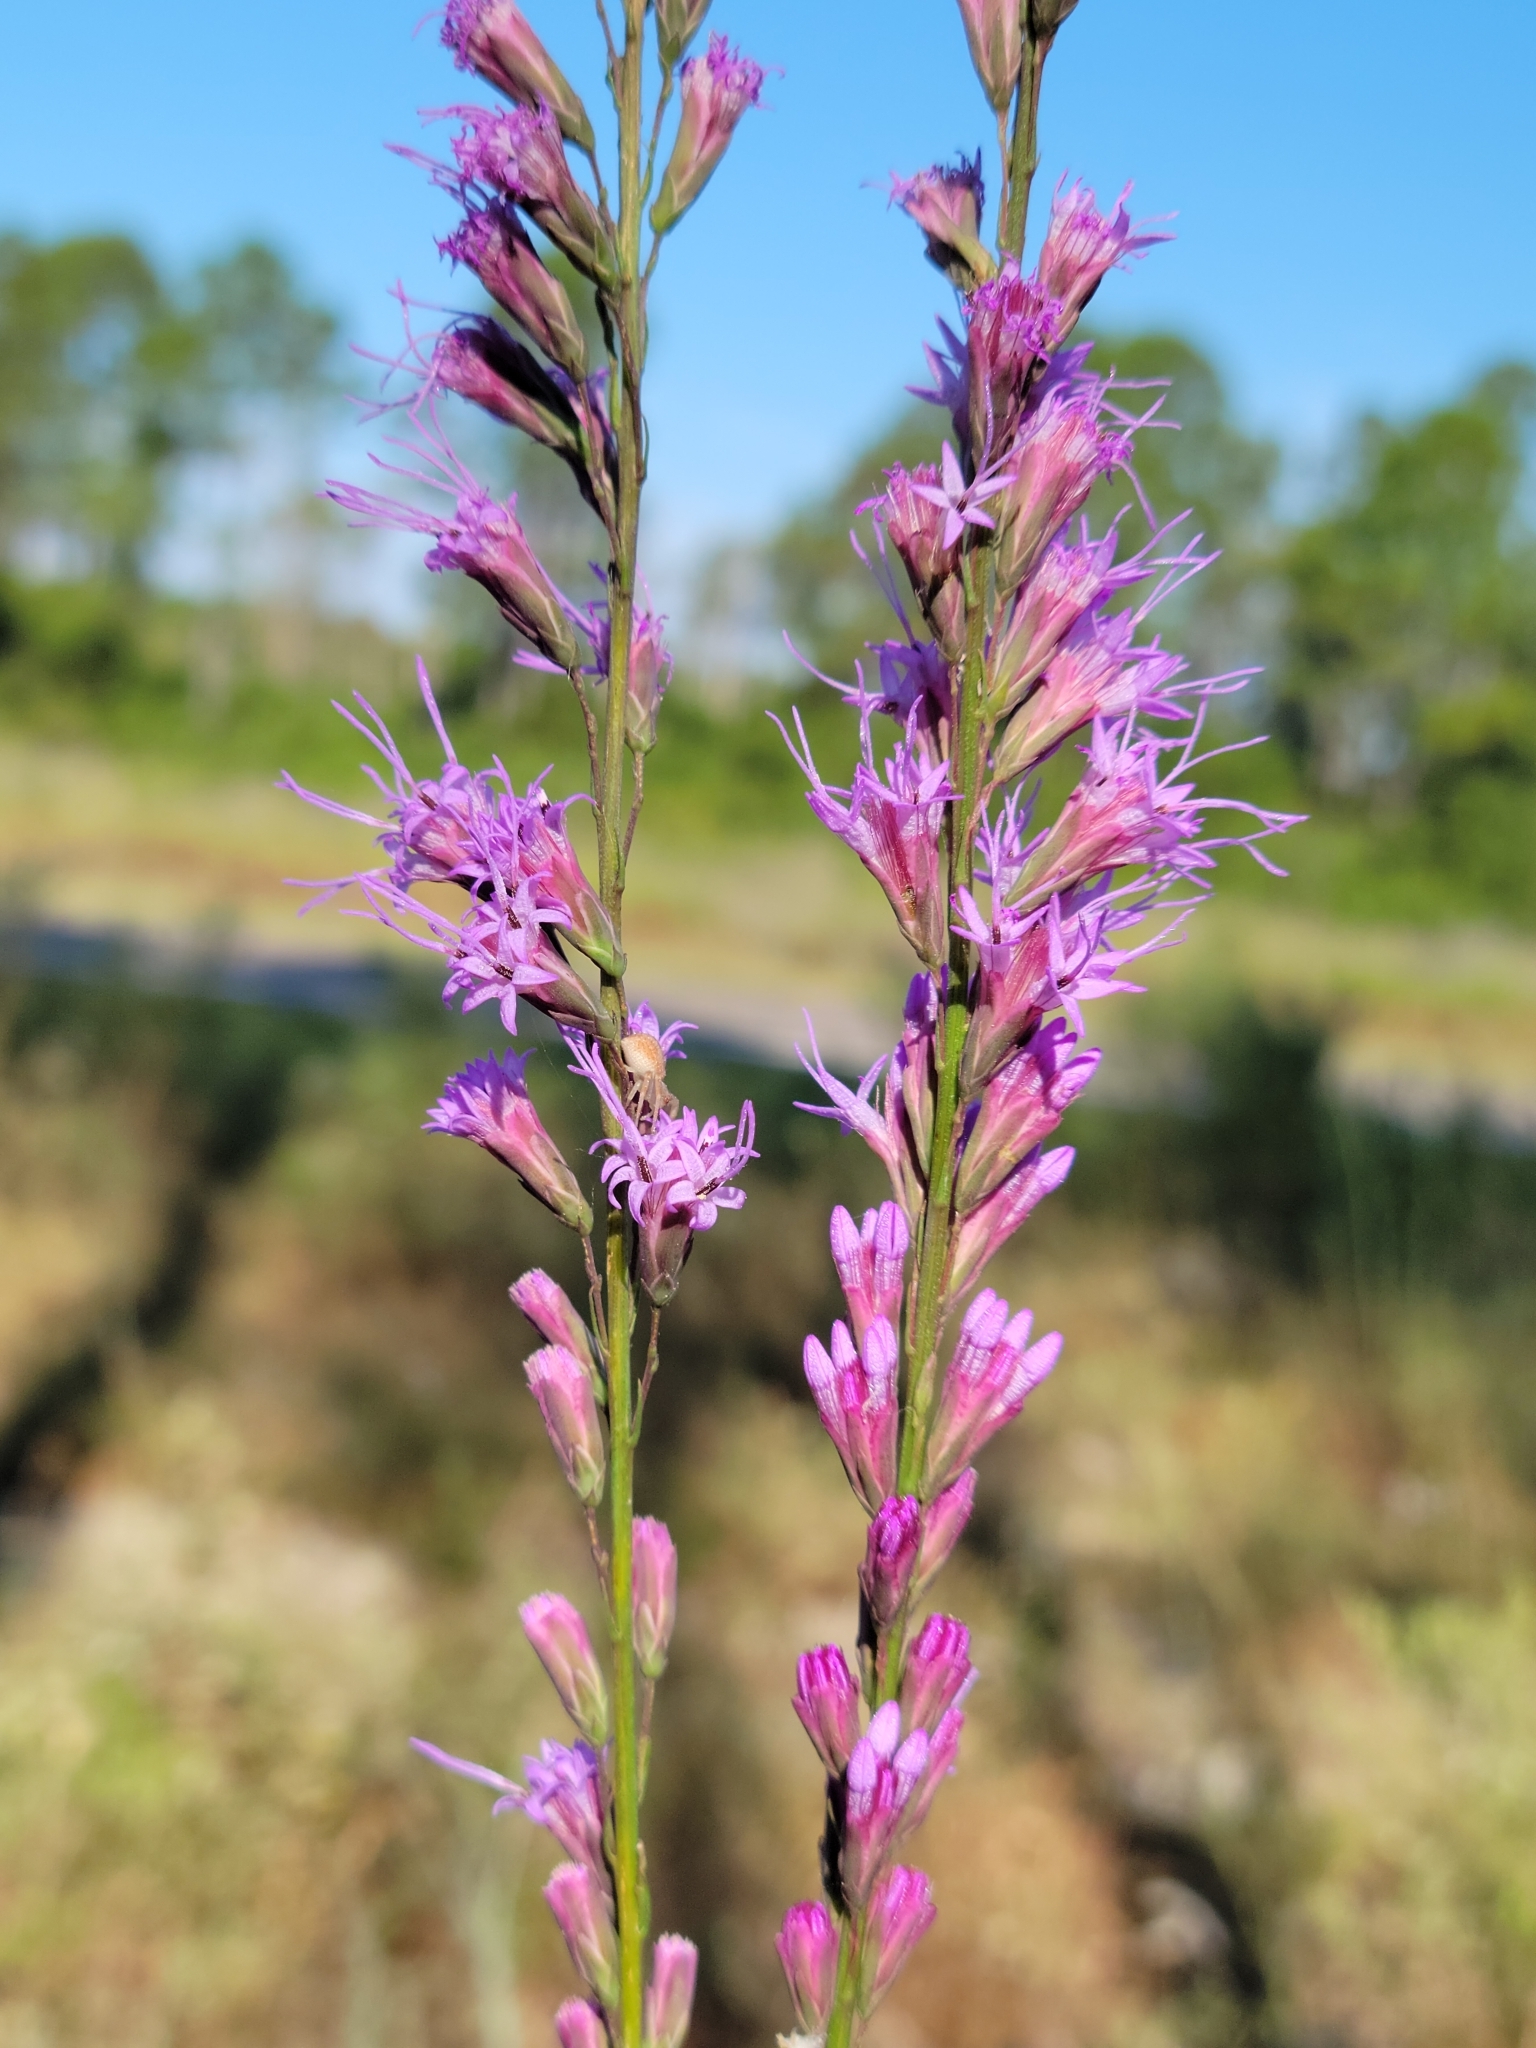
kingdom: Plantae
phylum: Tracheophyta
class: Magnoliopsida
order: Asterales
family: Asteraceae
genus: Liatris
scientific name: Liatris tenuifolia
